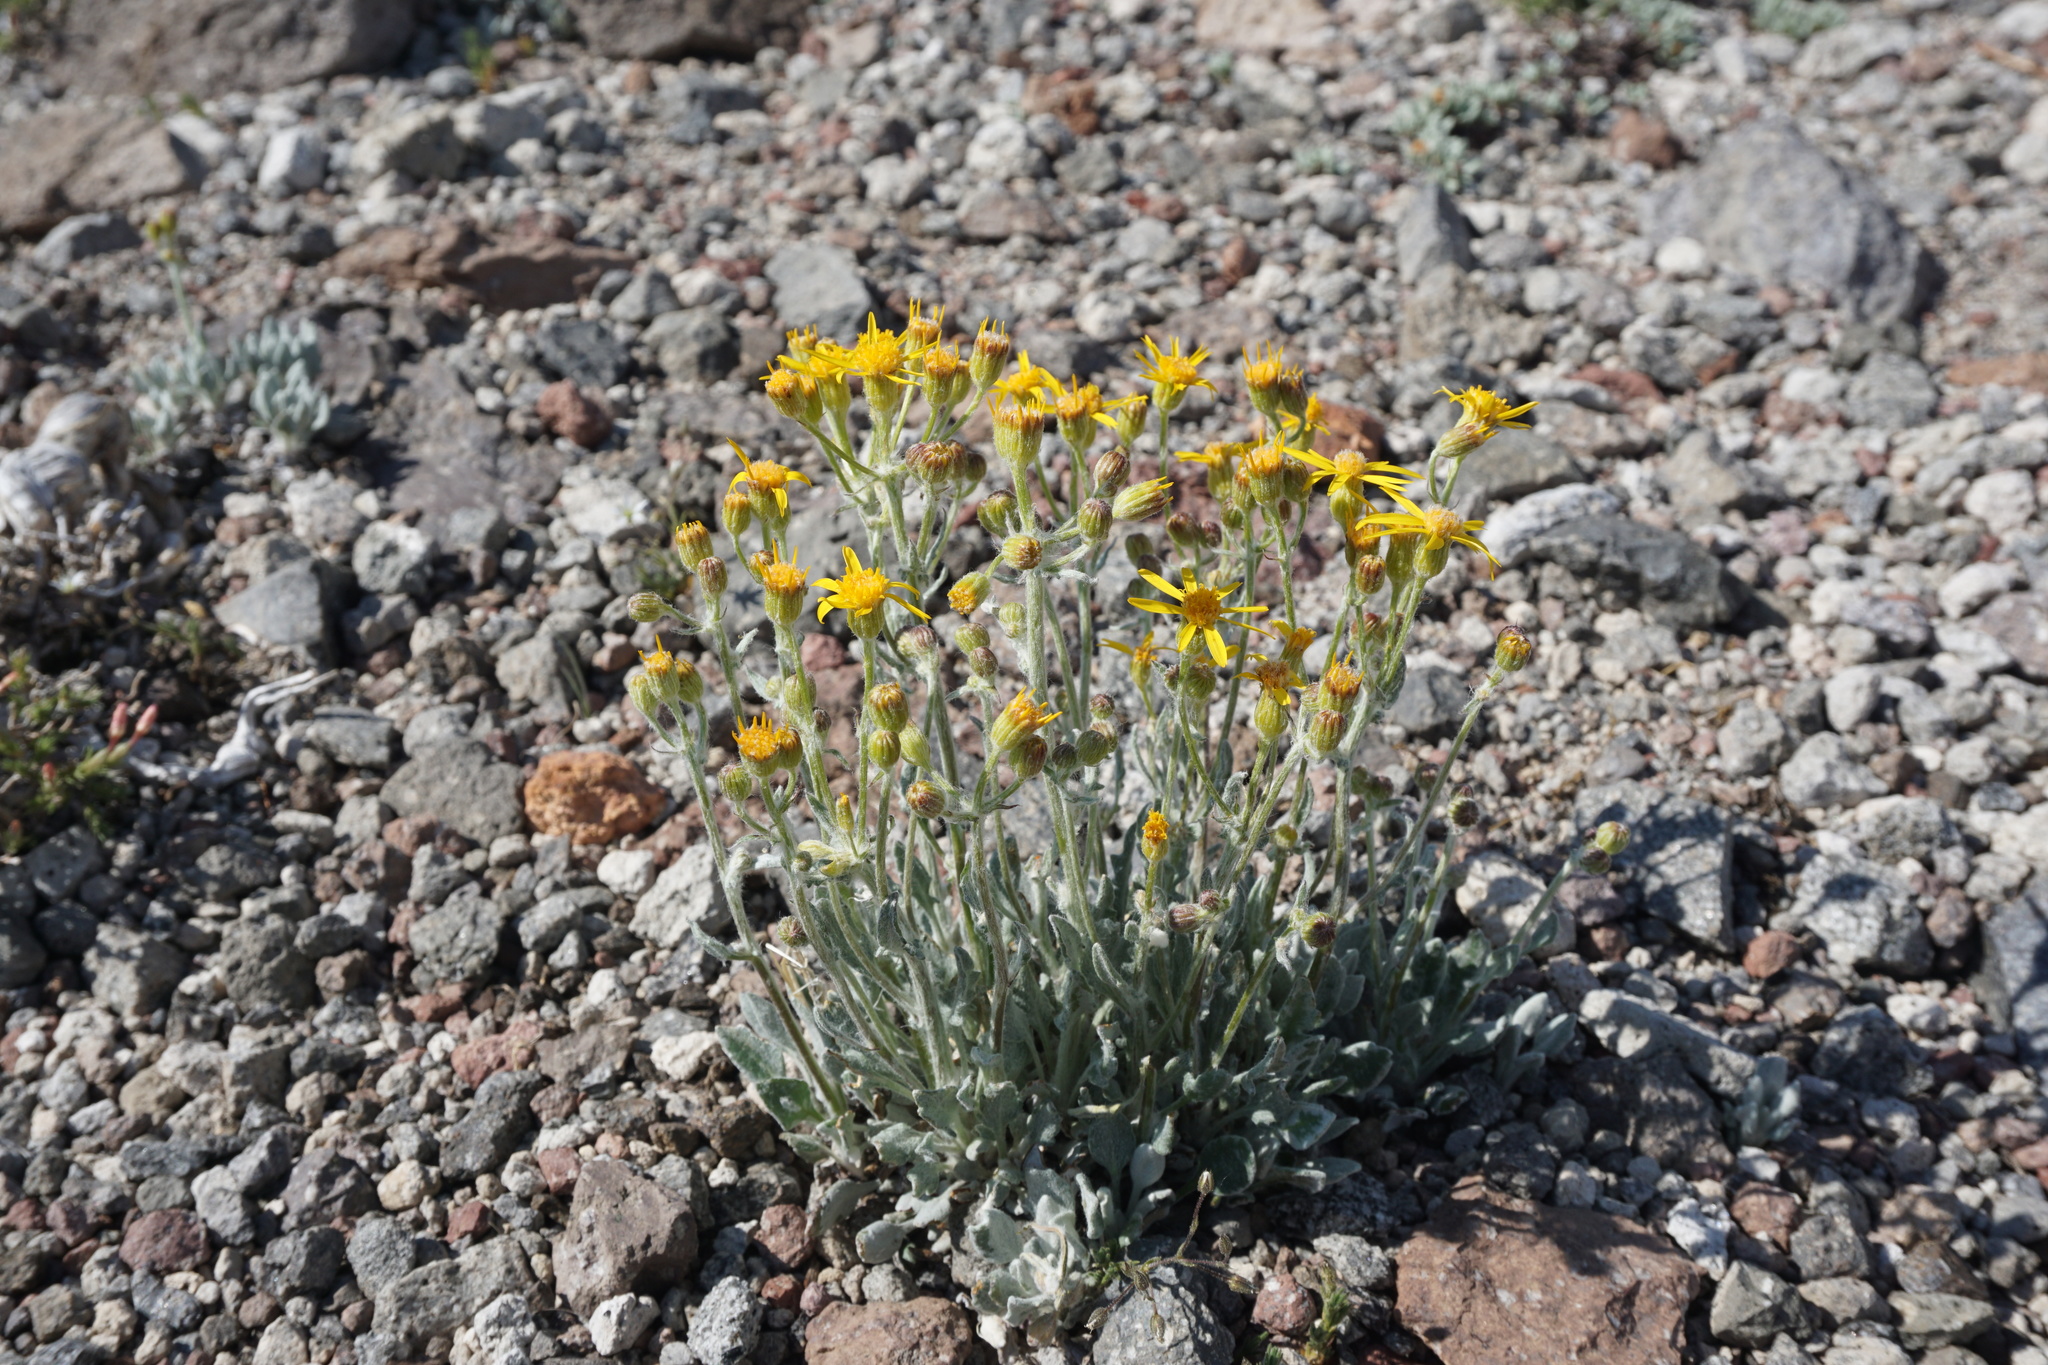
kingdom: Plantae
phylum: Tracheophyta
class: Magnoliopsida
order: Asterales
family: Asteraceae
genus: Packera
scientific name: Packera cana
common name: Woolly groundsel
